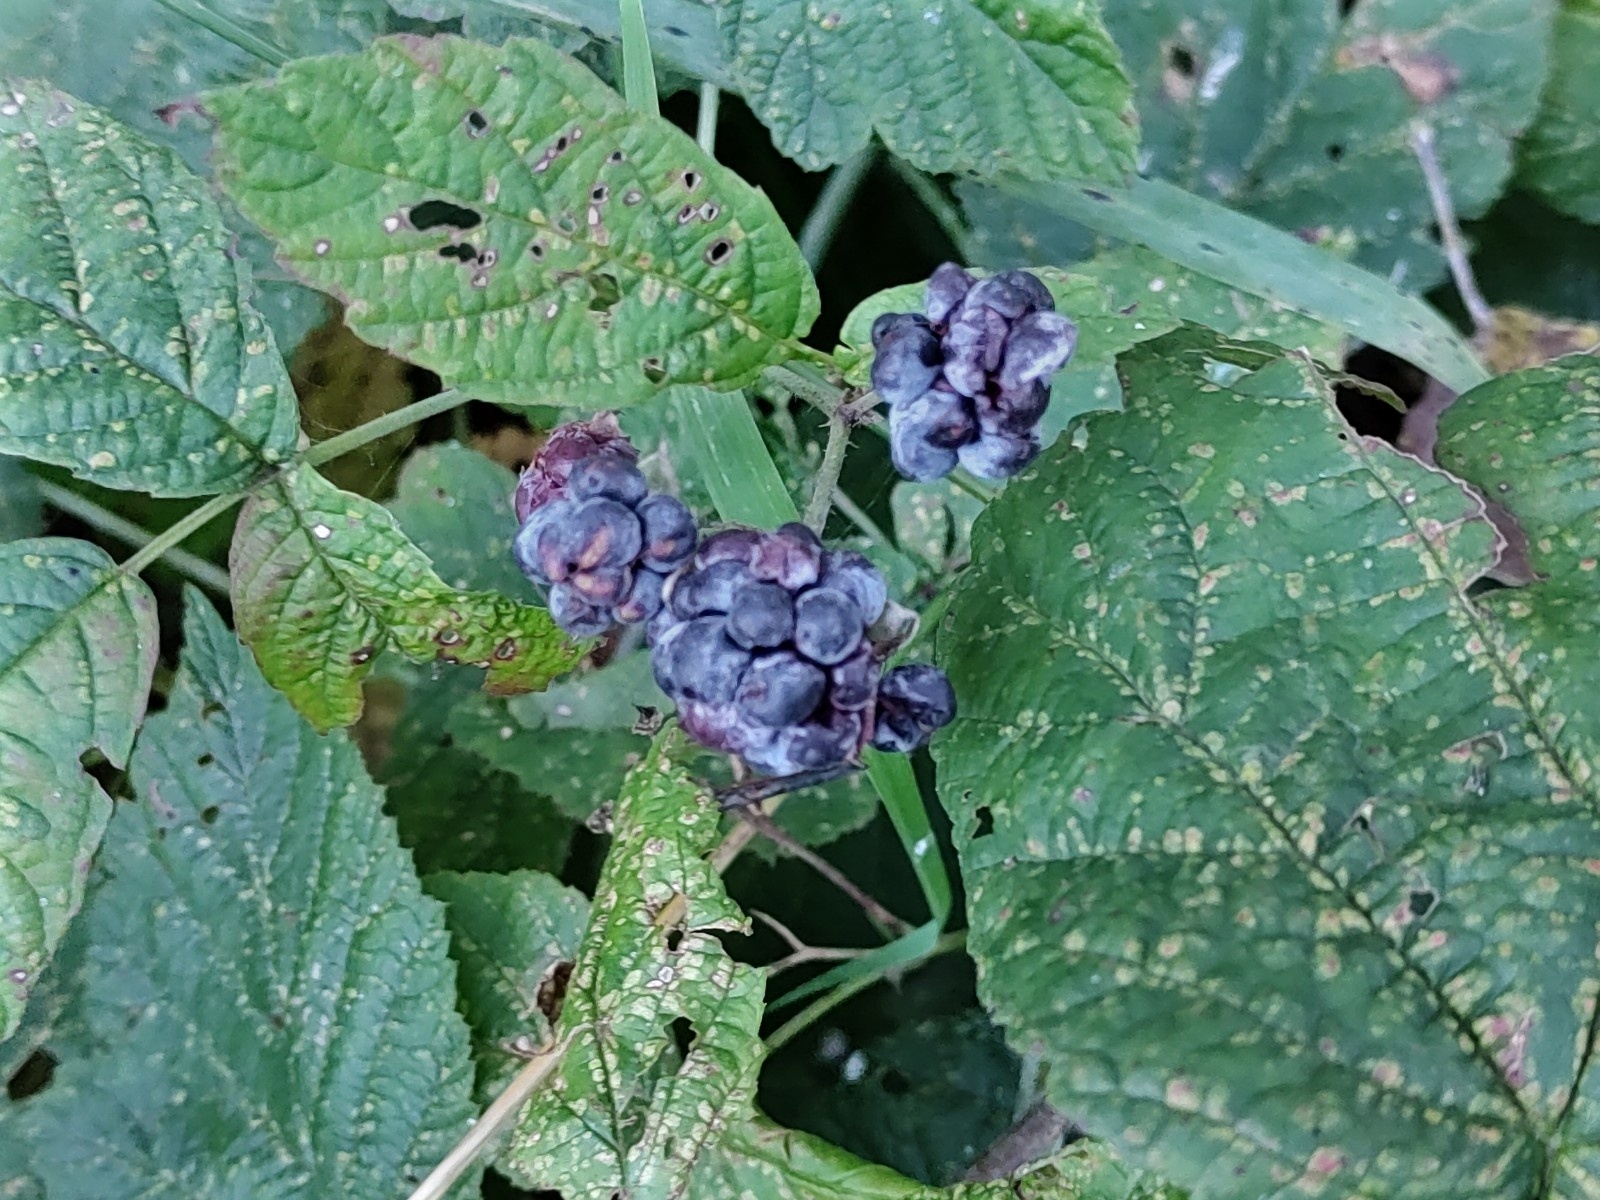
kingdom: Plantae
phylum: Tracheophyta
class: Magnoliopsida
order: Rosales
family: Rosaceae
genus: Rubus
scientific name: Rubus caesius
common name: Dewberry
